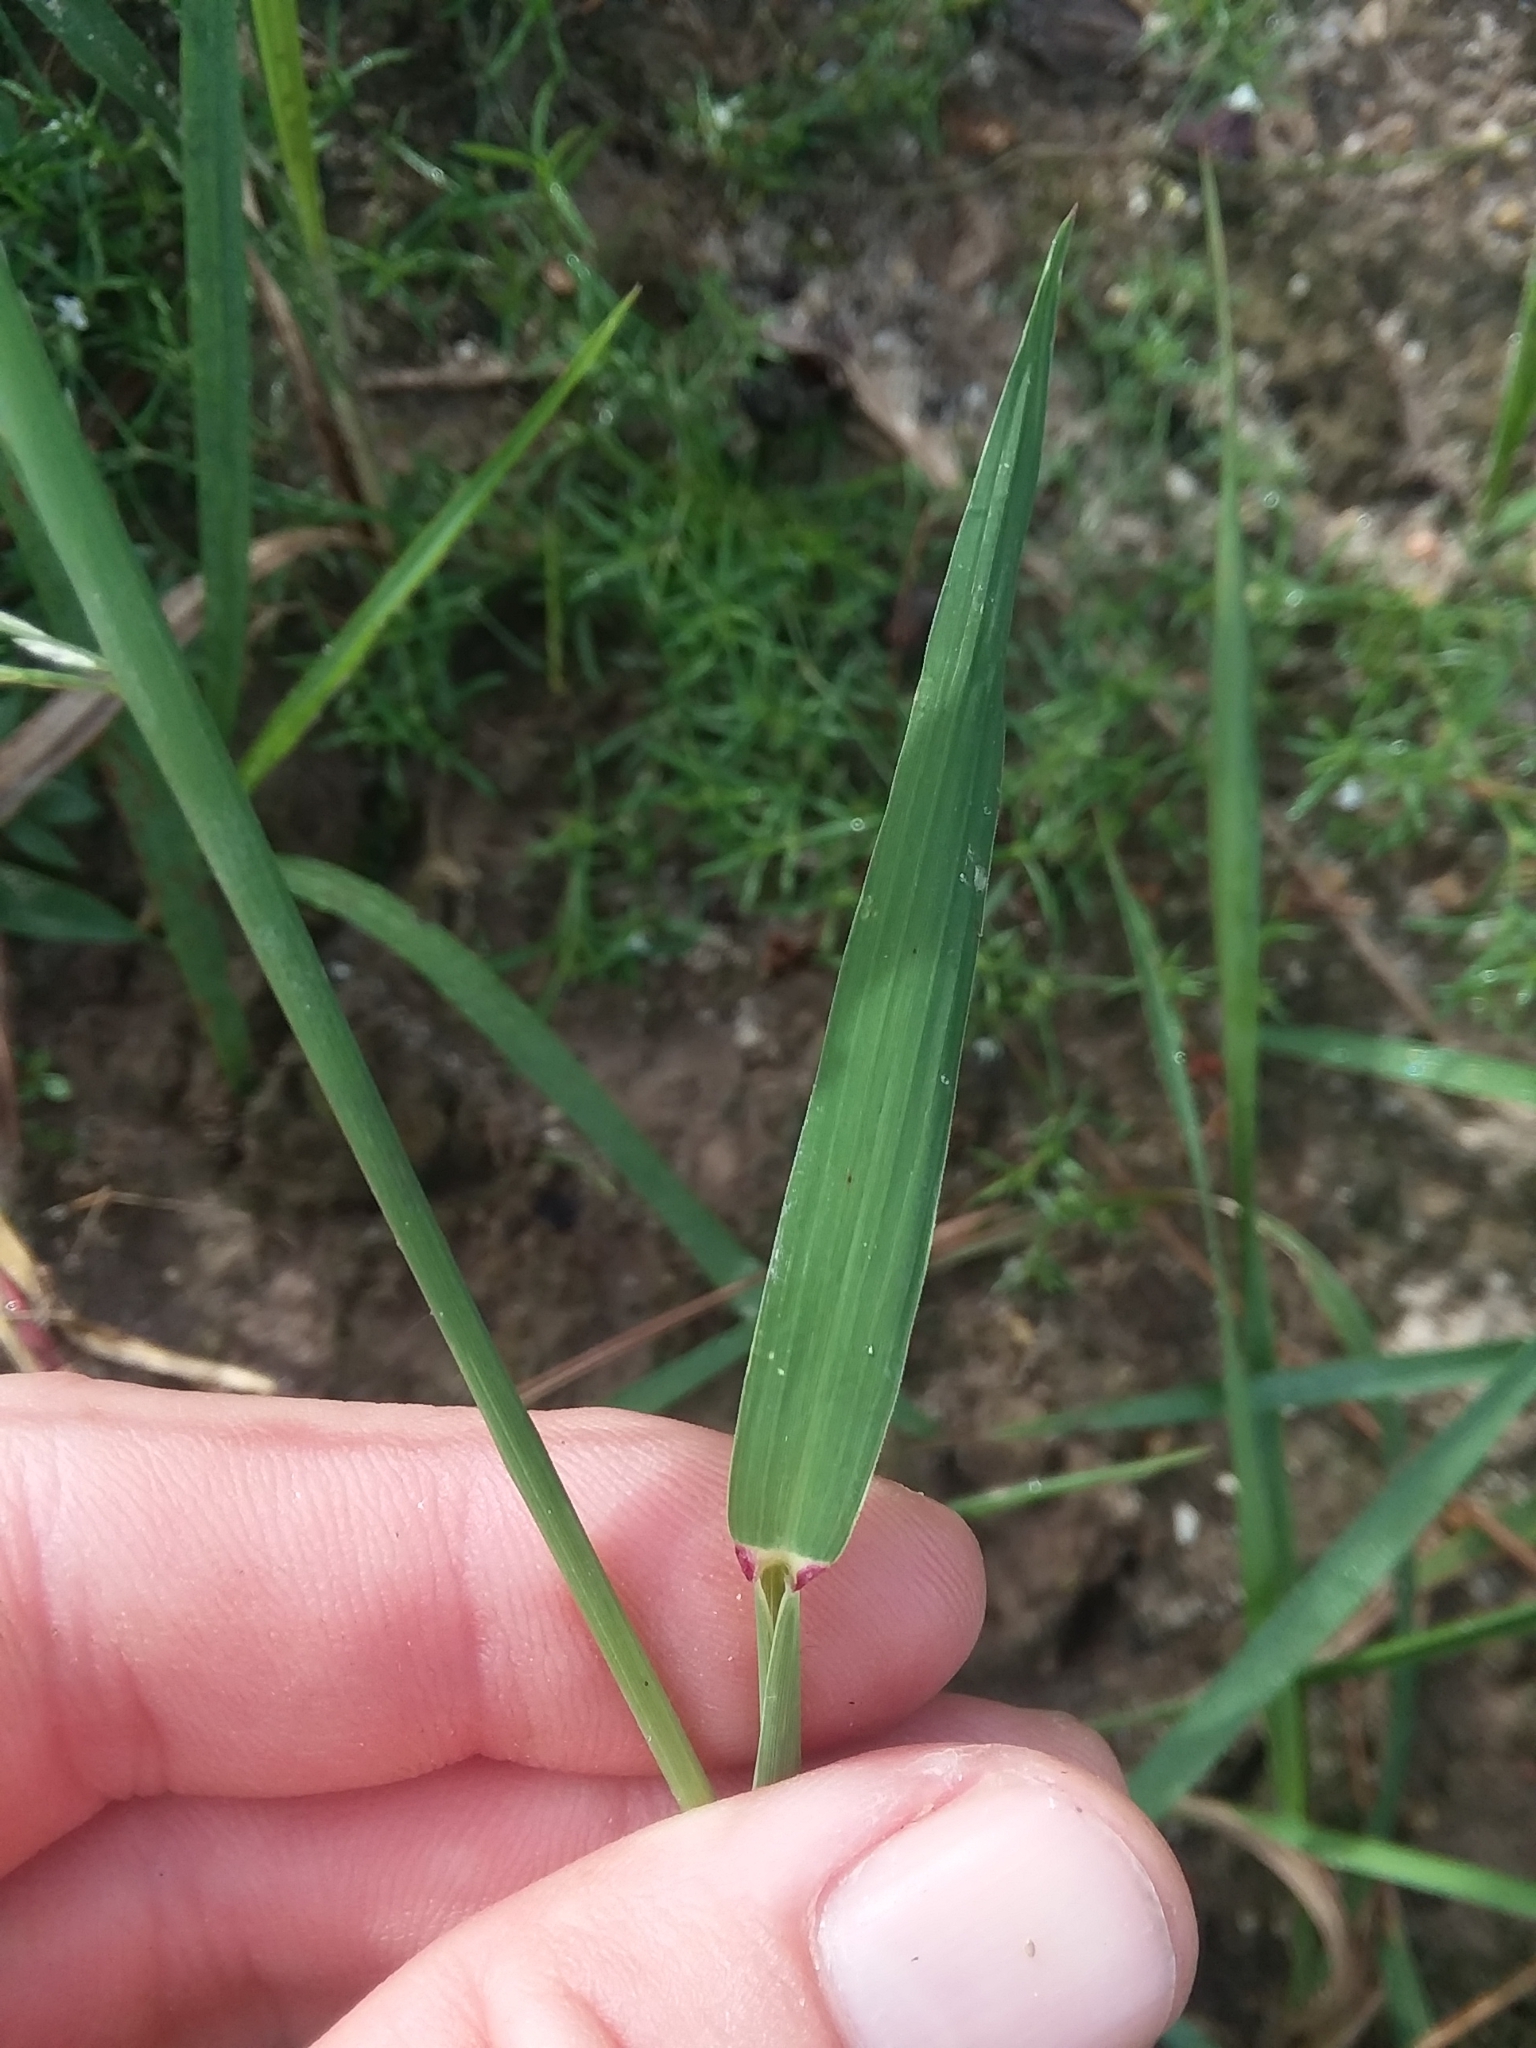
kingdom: Plantae
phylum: Tracheophyta
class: Liliopsida
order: Poales
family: Poaceae
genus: Leptochloa
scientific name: Leptochloa panicoides
